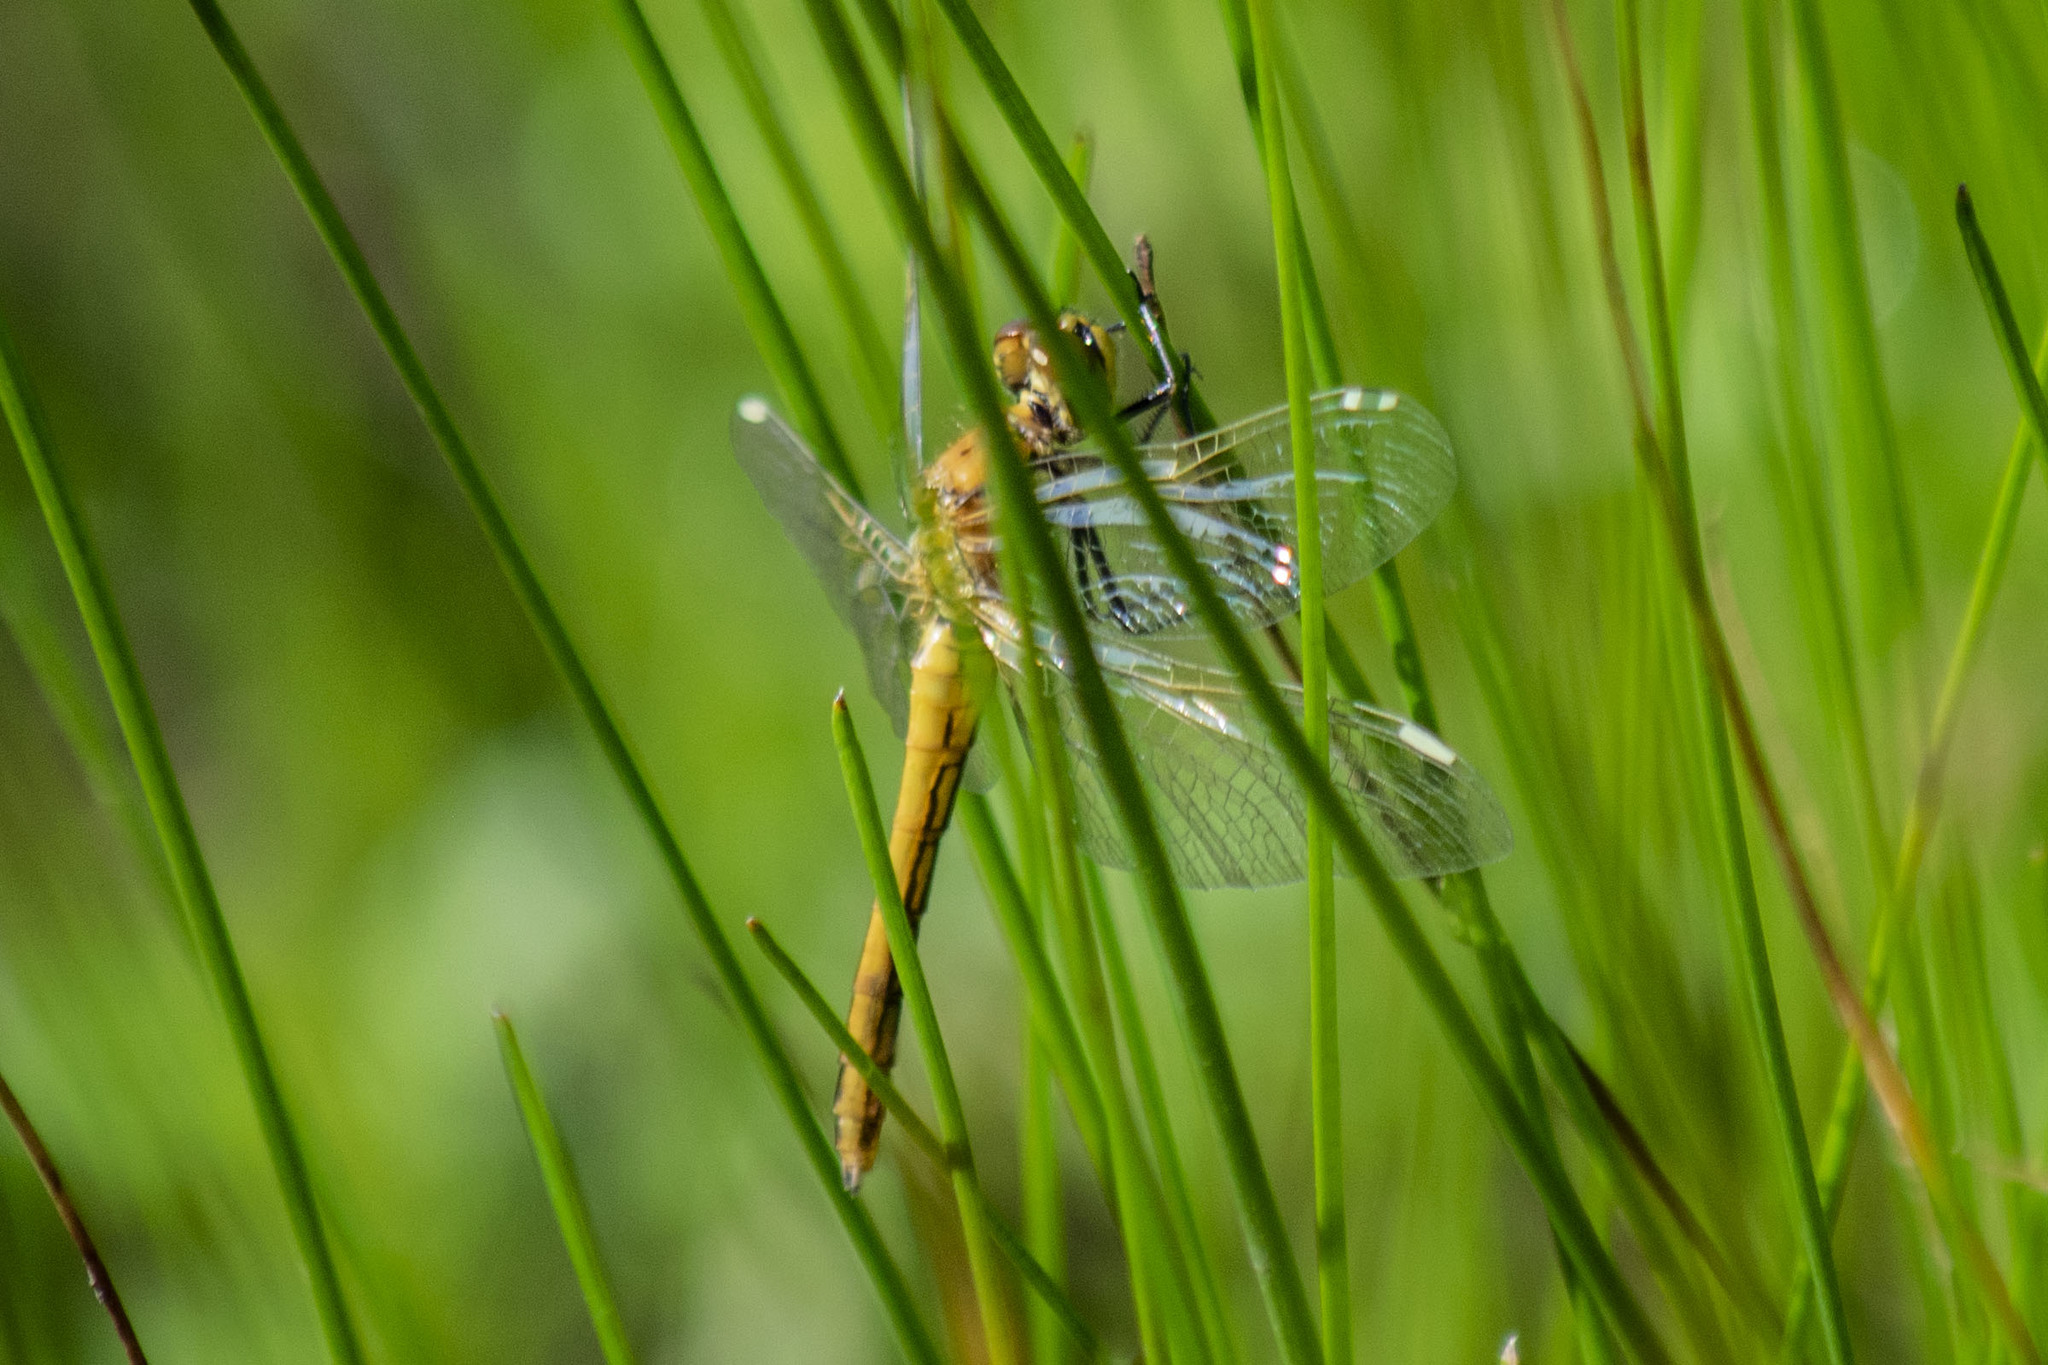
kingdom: Animalia
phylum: Arthropoda
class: Insecta
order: Odonata
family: Libellulidae
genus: Sympetrum
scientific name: Sympetrum flaveolum
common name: Yellow-winged darter
